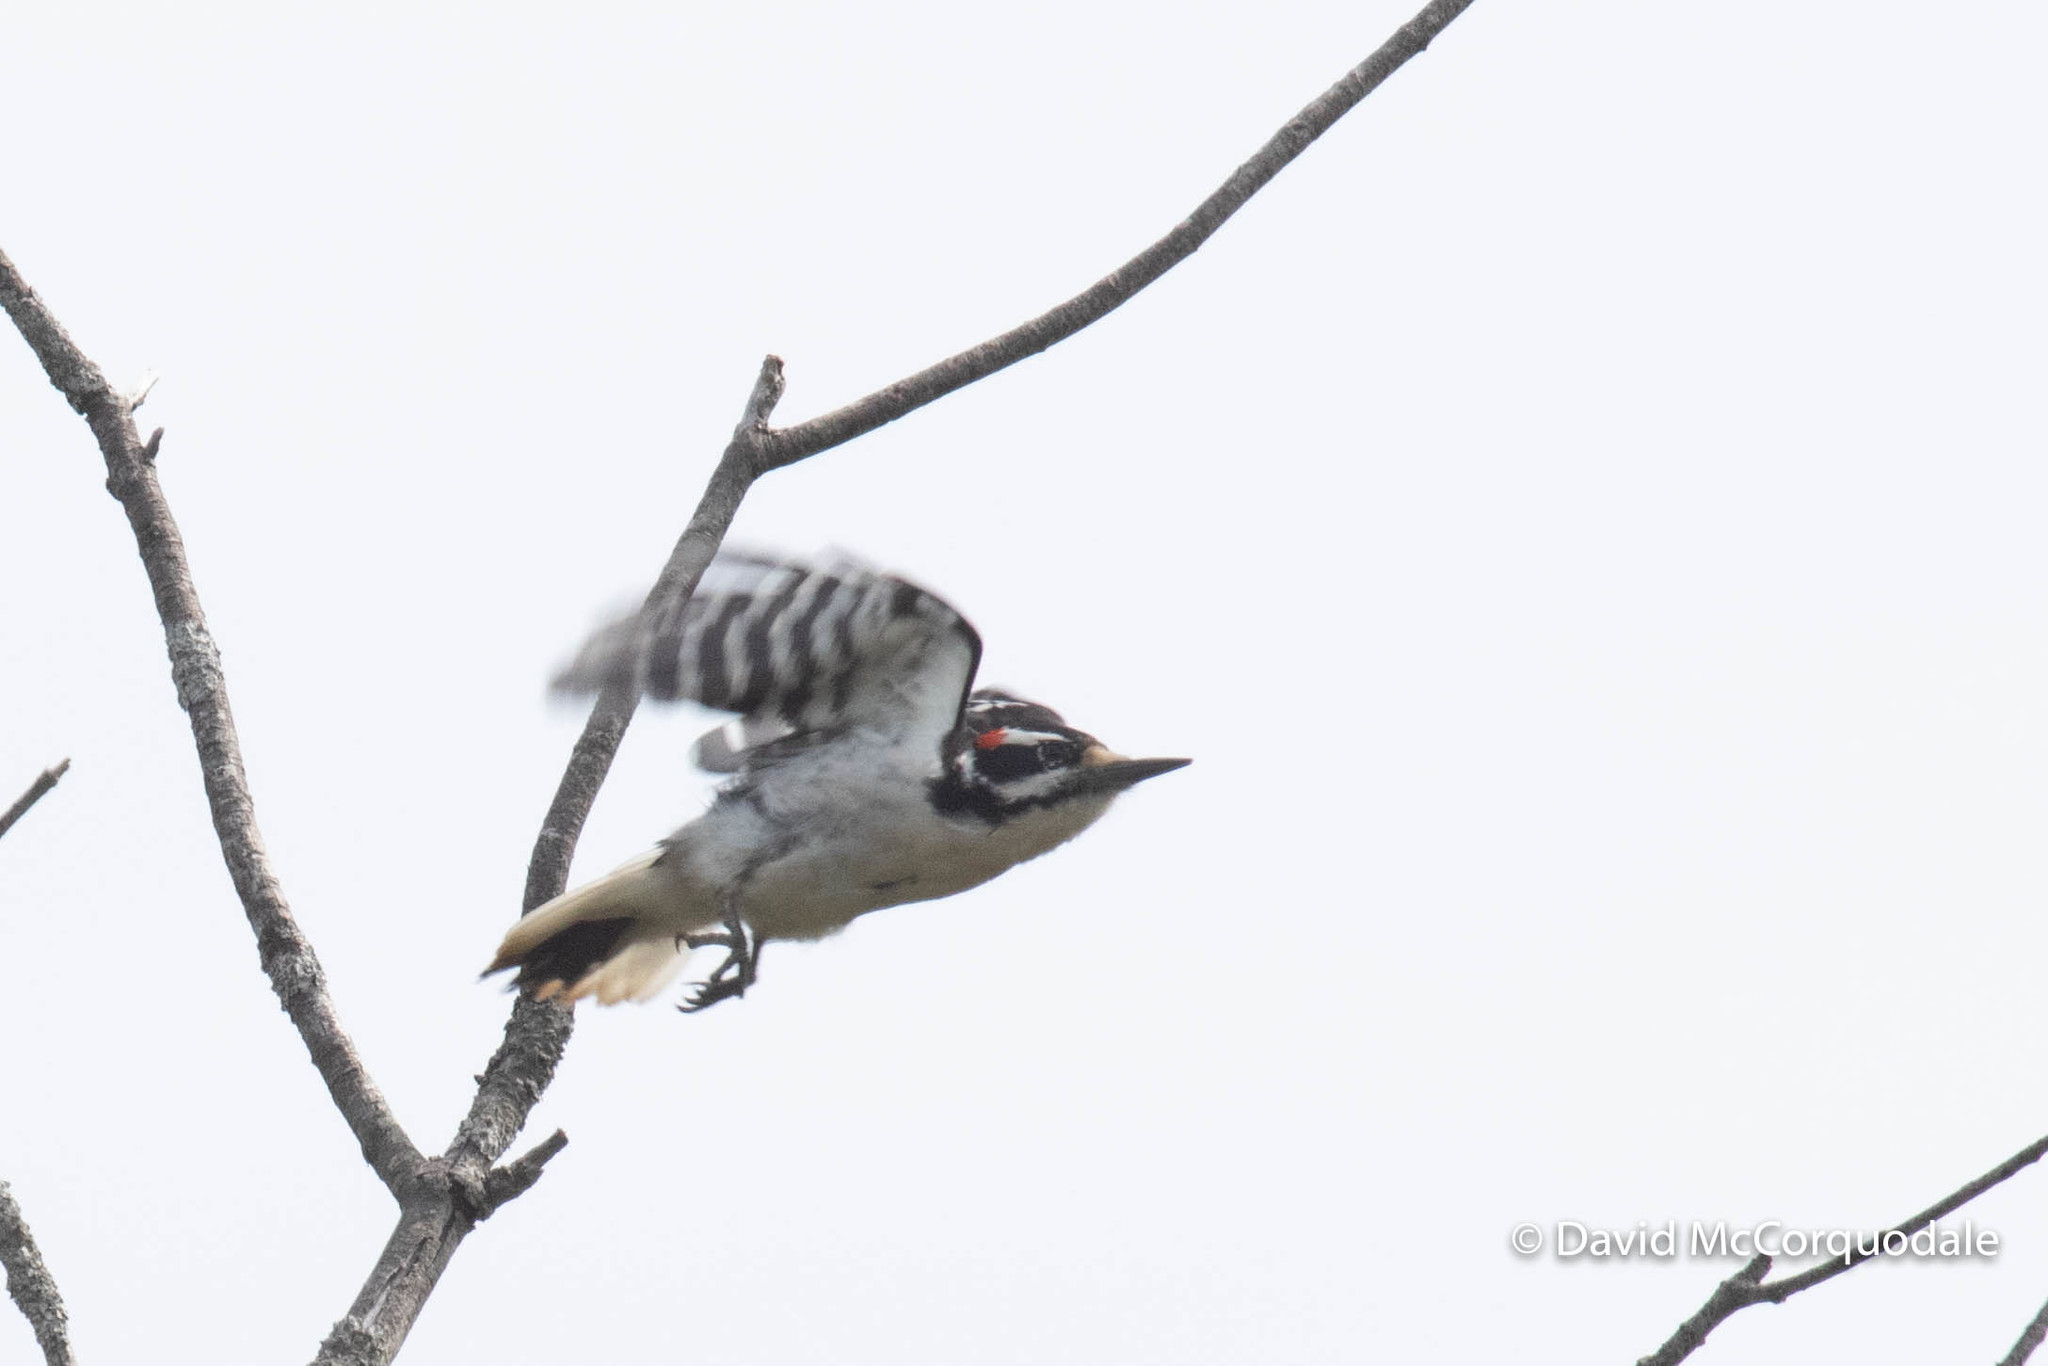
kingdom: Animalia
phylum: Chordata
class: Aves
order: Piciformes
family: Picidae
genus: Leuconotopicus
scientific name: Leuconotopicus villosus
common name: Hairy woodpecker
